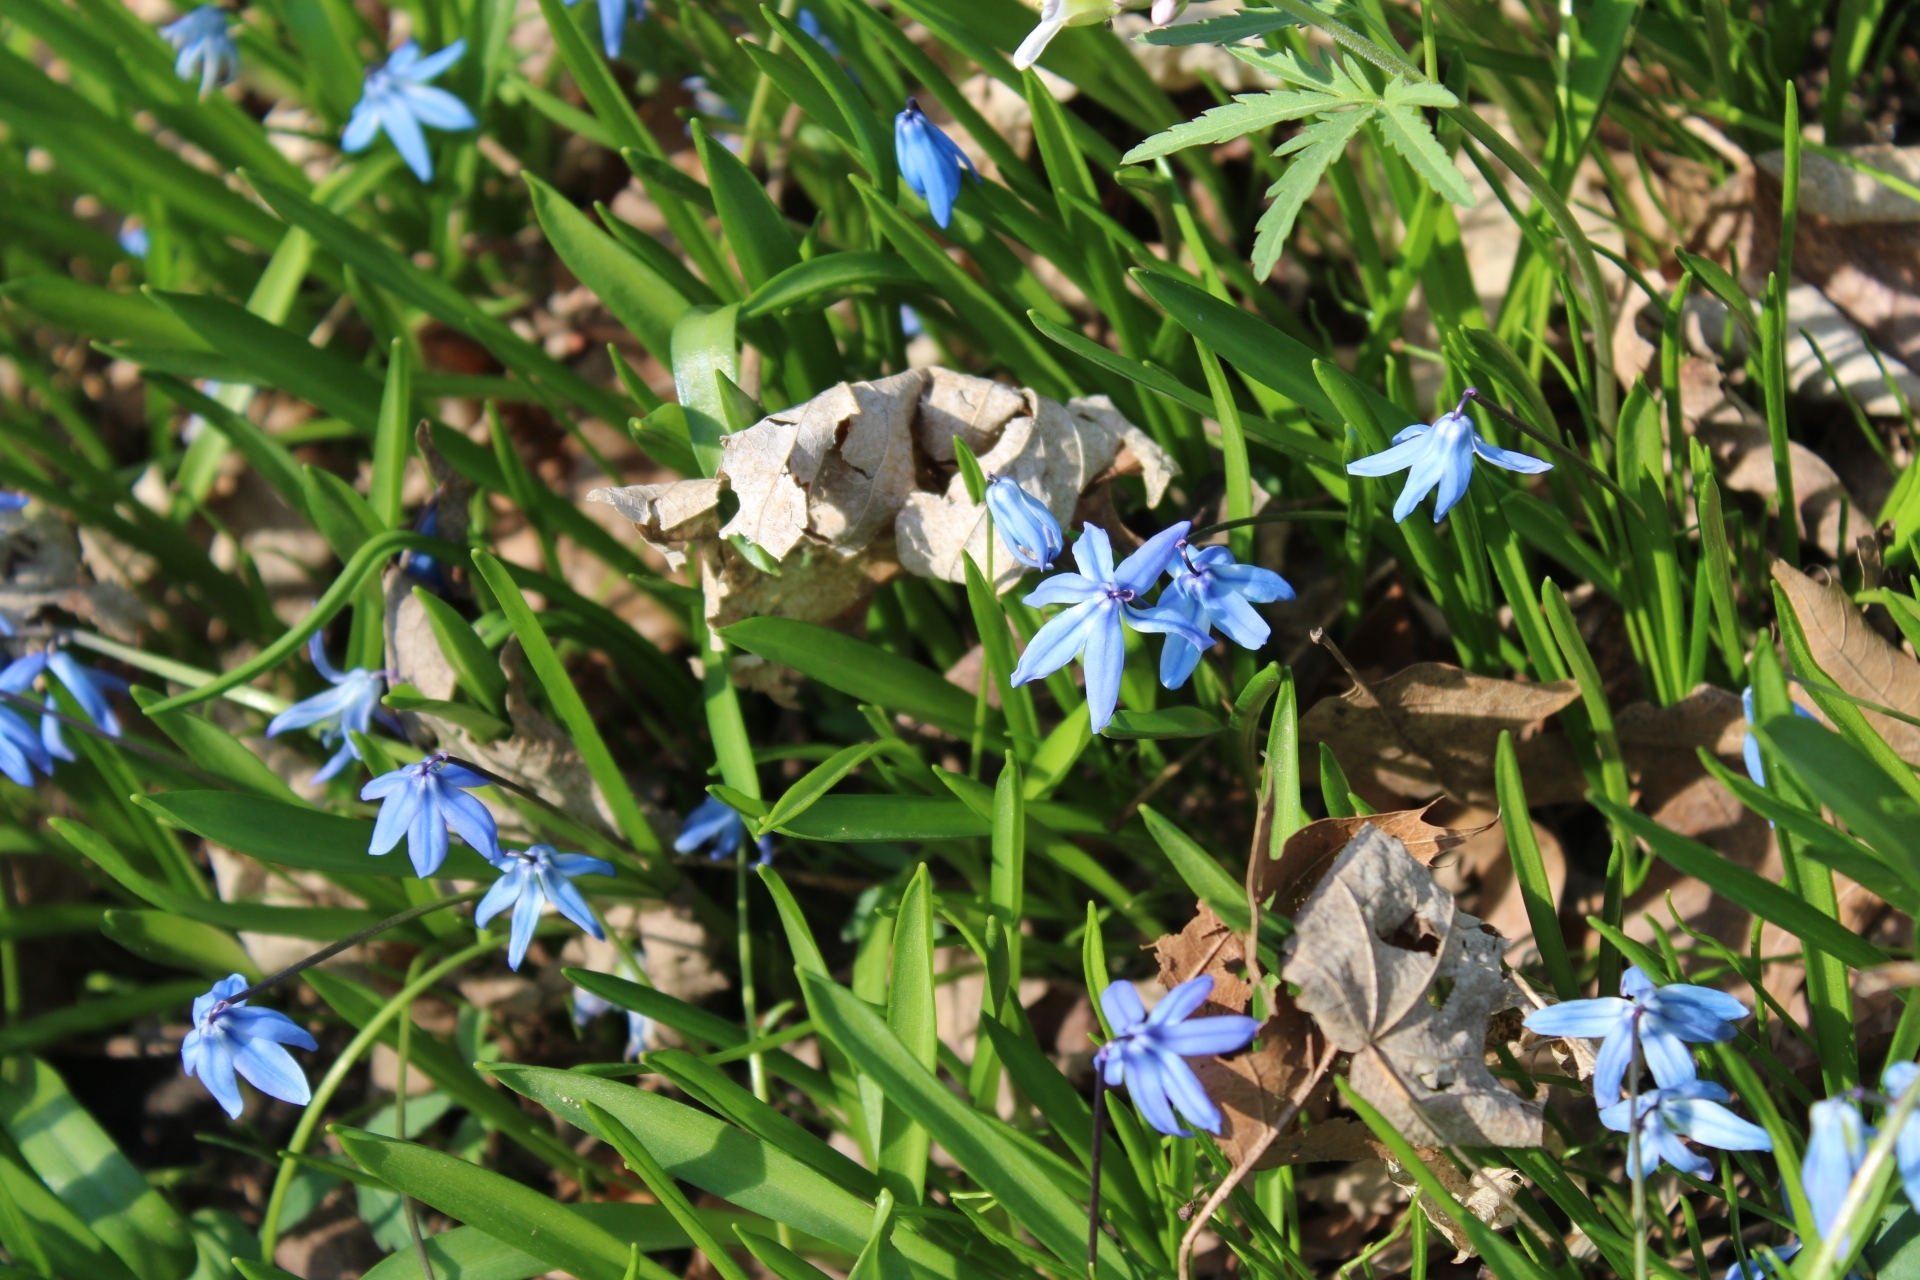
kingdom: Plantae
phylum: Tracheophyta
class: Liliopsida
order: Asparagales
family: Asparagaceae
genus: Scilla
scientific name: Scilla siberica
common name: Siberian squill
